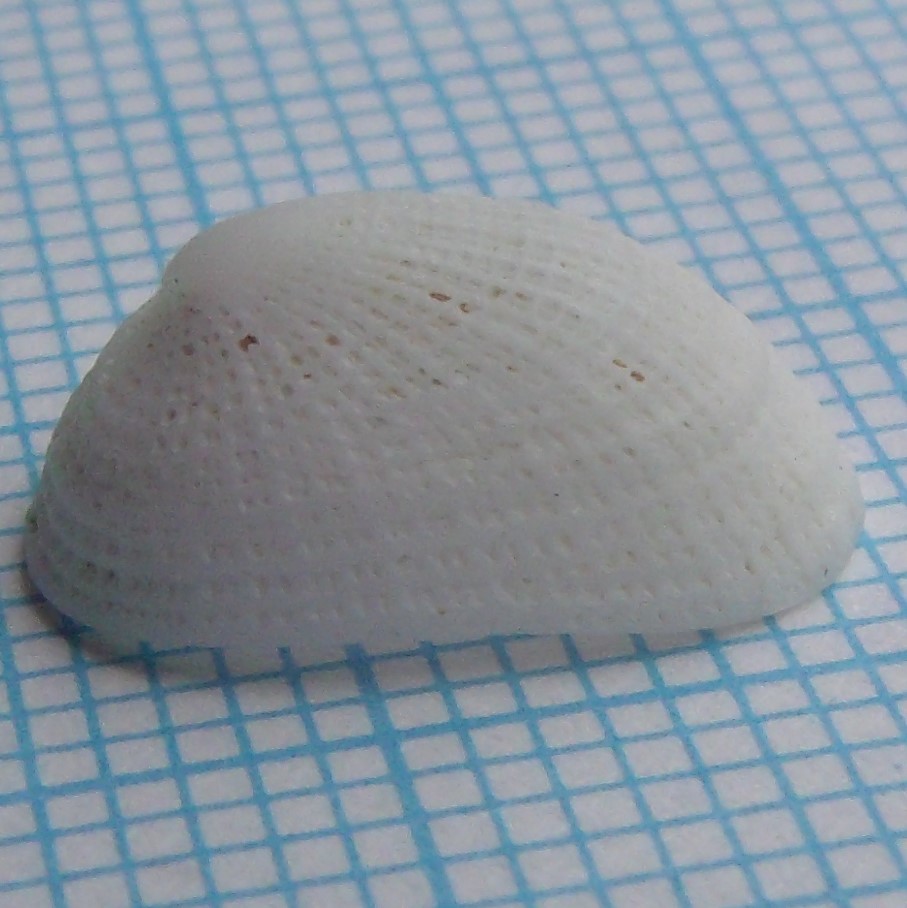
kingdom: Animalia
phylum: Mollusca
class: Gastropoda
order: Lepetellida
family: Fissurellidae
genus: Tugali
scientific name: Tugali suteri
